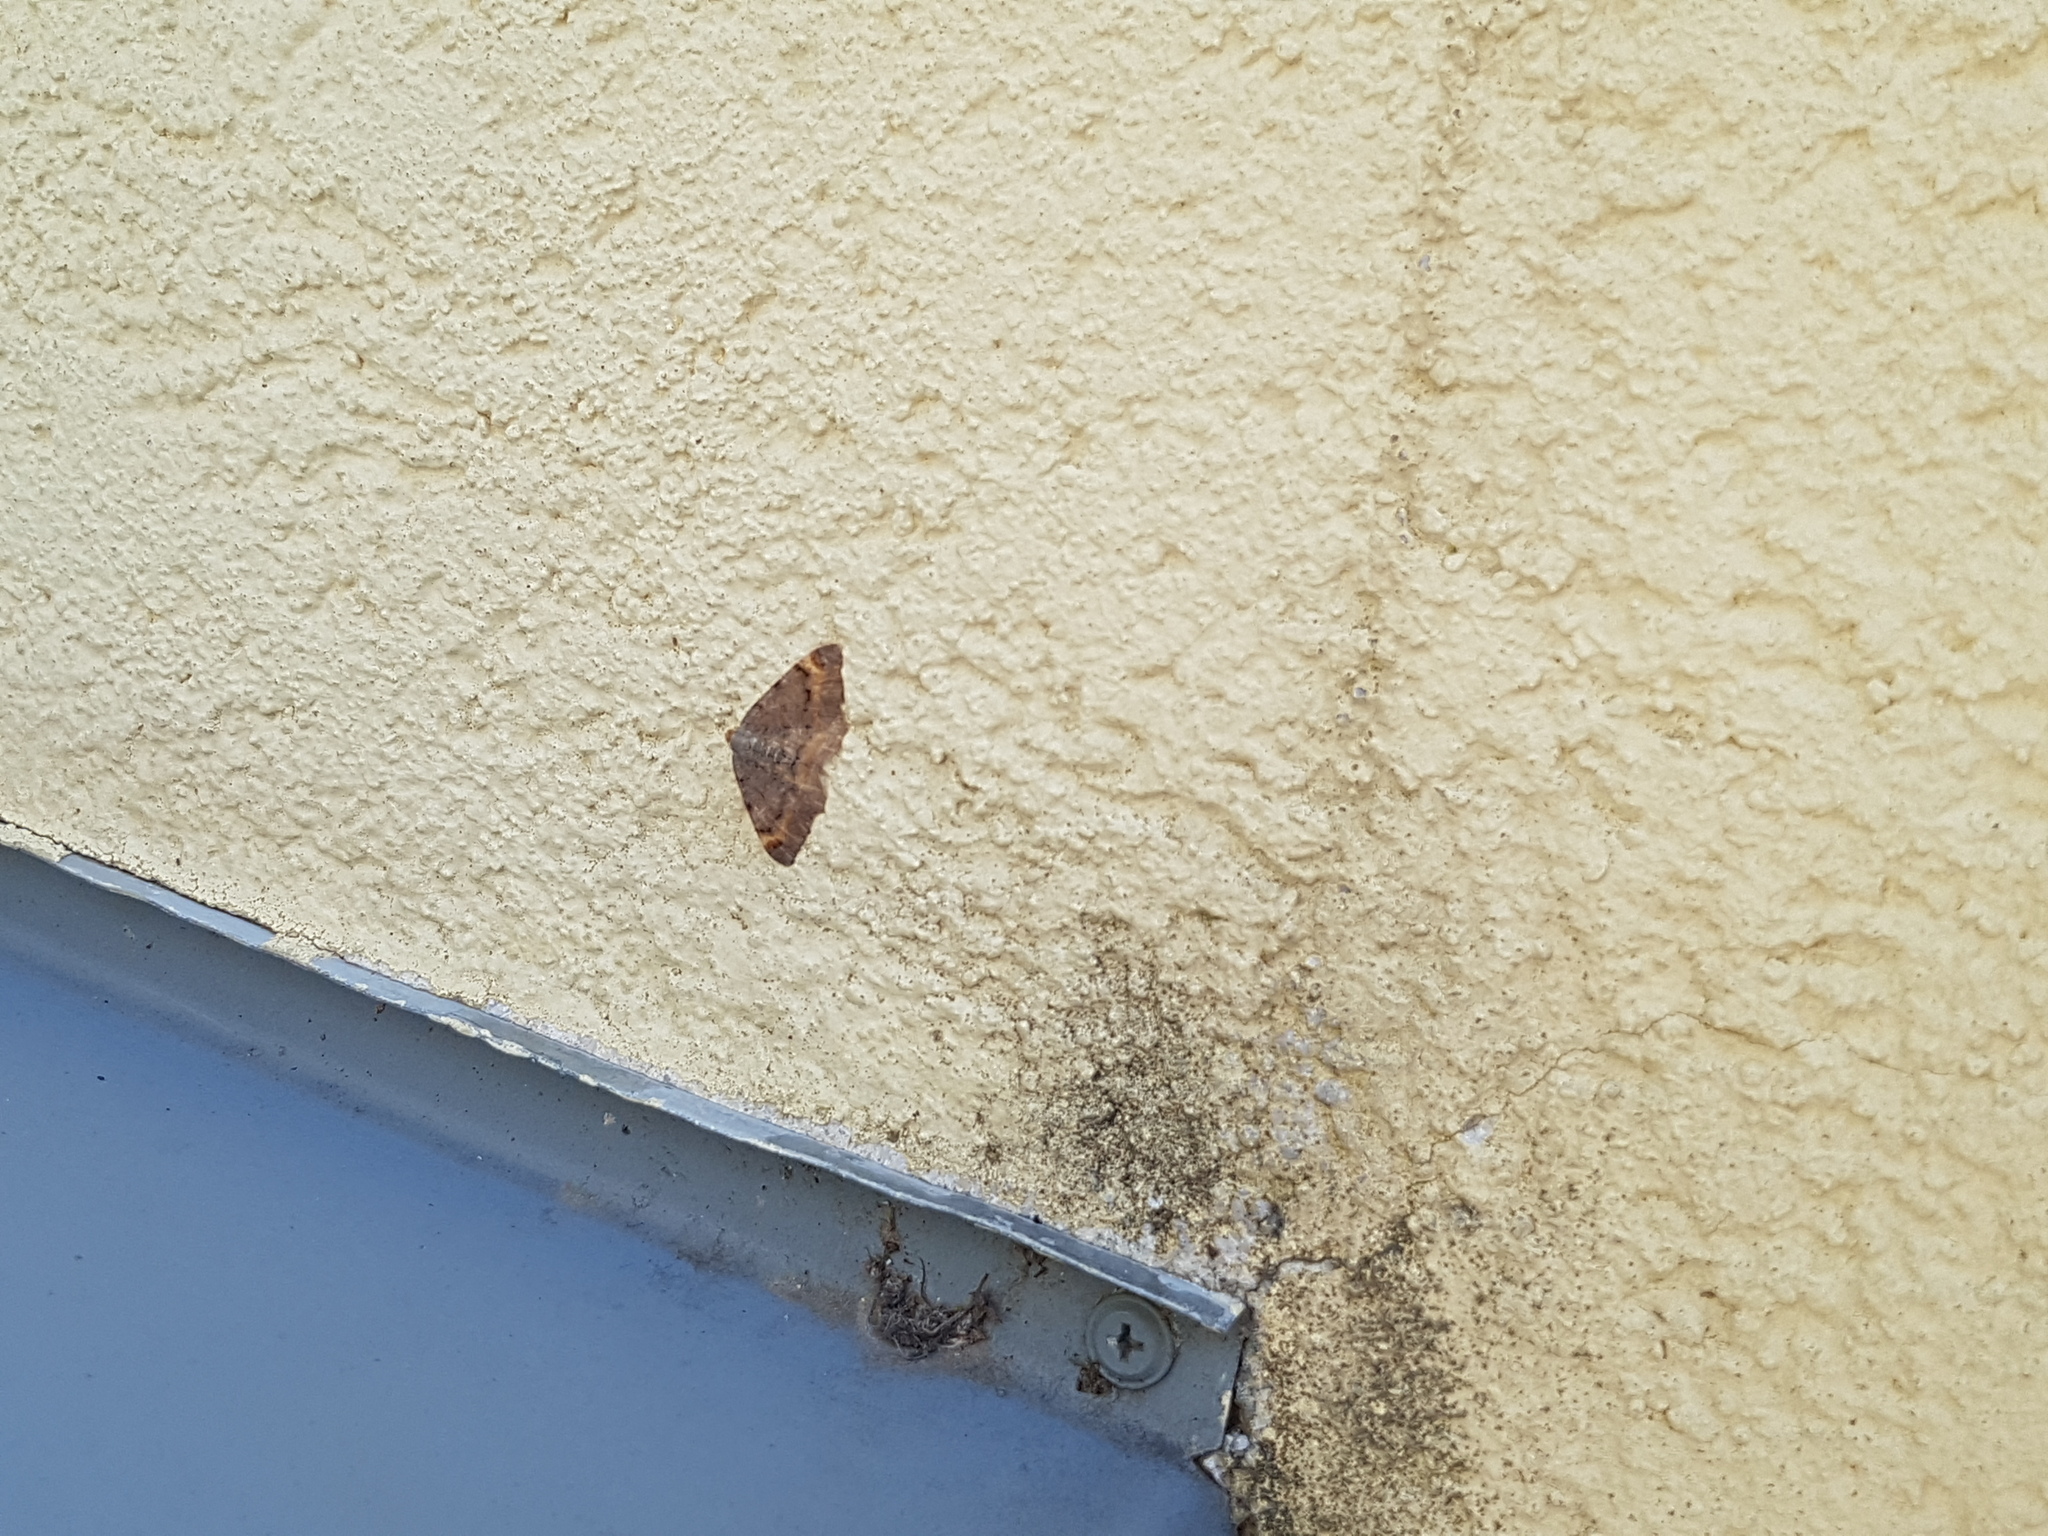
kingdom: Animalia
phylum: Arthropoda
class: Insecta
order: Lepidoptera
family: Geometridae
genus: Macaria
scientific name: Macaria liturata
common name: Tawny-barred angle
